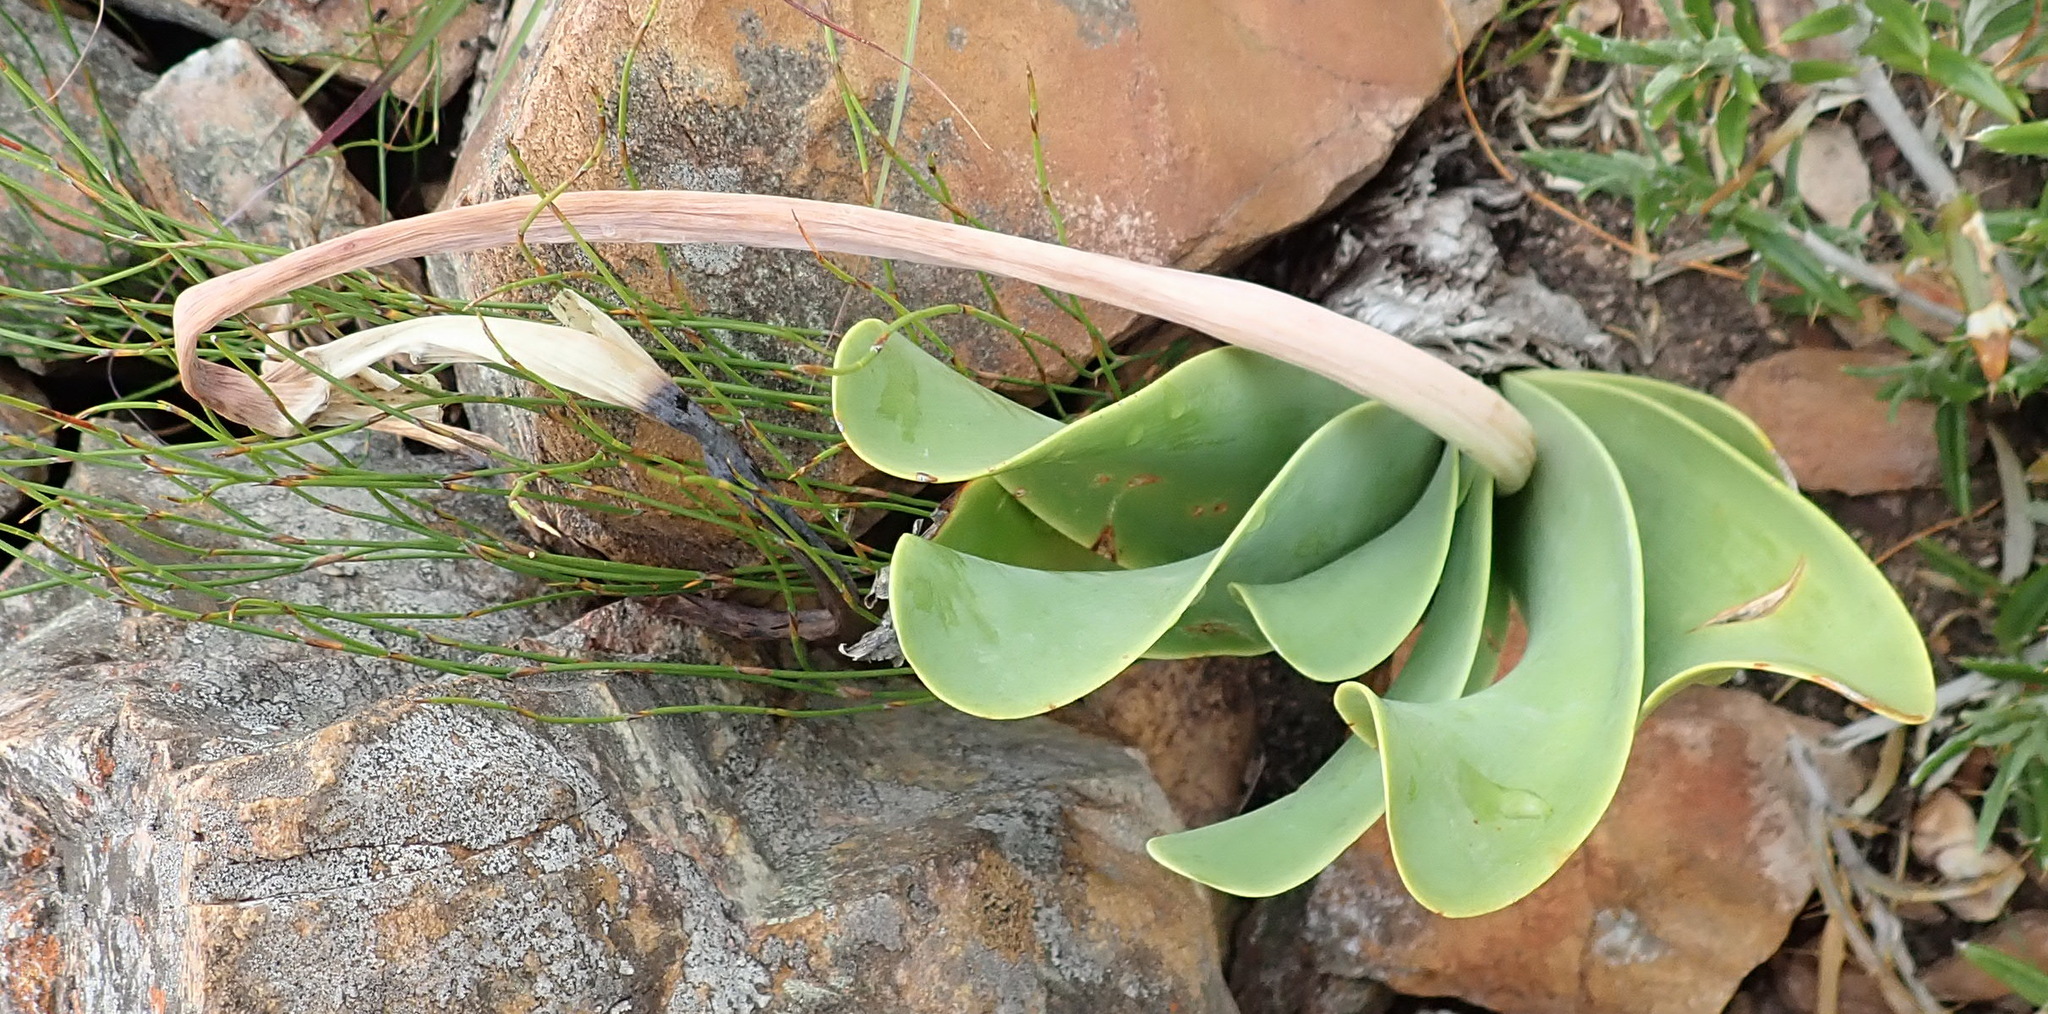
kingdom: Plantae
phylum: Tracheophyta
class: Liliopsida
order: Asparagales
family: Amaryllidaceae
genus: Cyrtanthus
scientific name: Cyrtanthus obliquus
